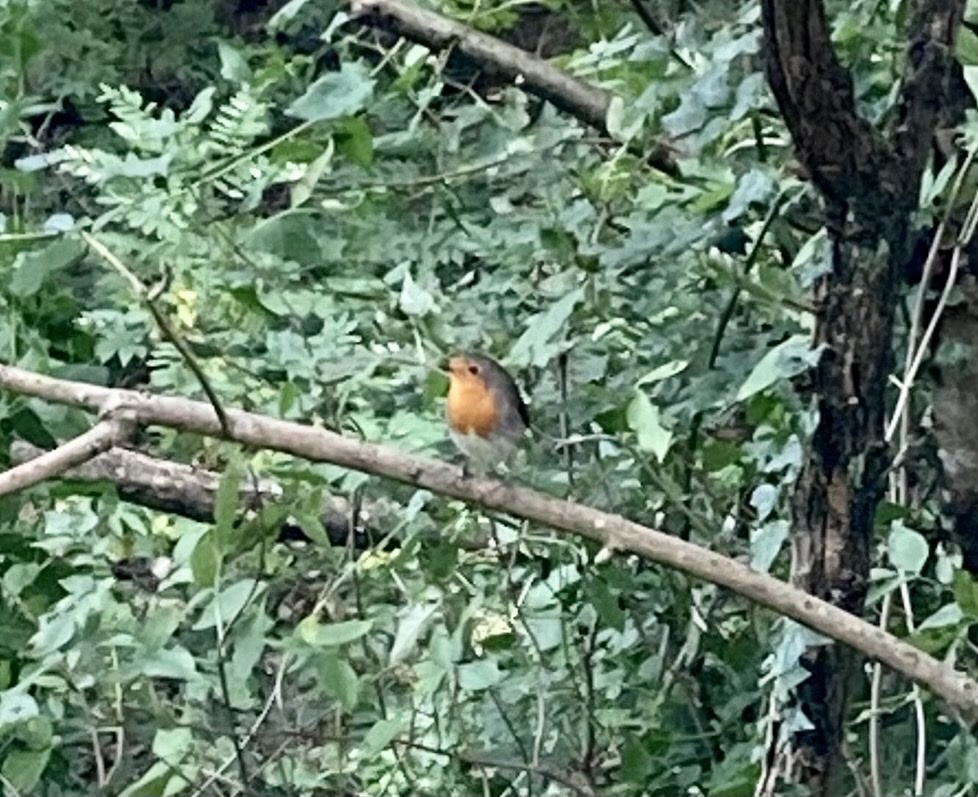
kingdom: Animalia
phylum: Chordata
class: Aves
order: Passeriformes
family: Muscicapidae
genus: Erithacus
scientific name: Erithacus rubecula
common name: European robin
